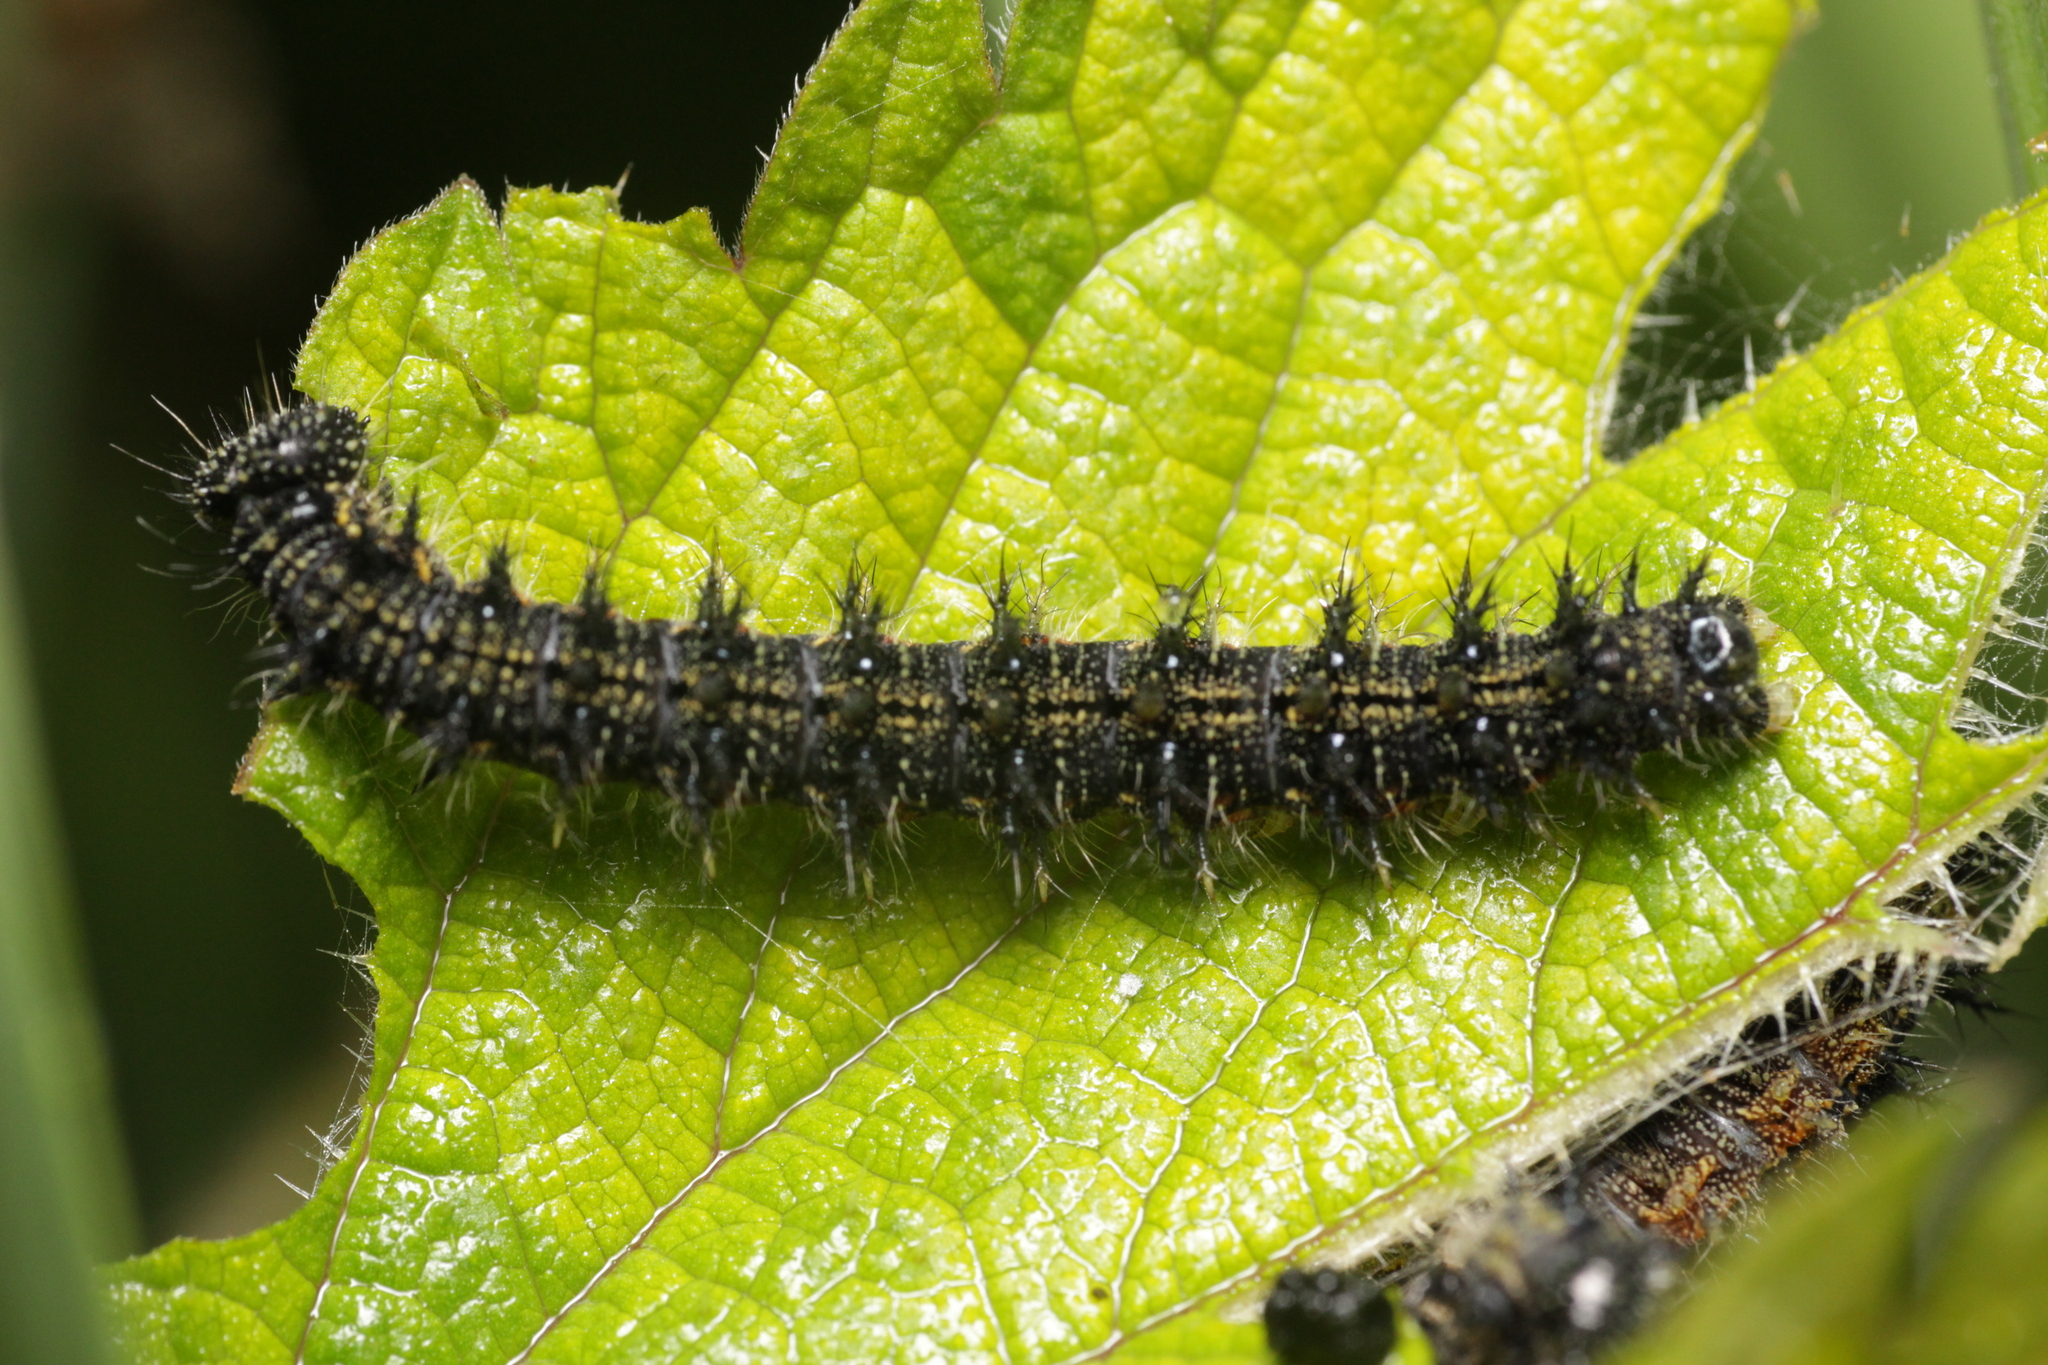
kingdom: Animalia
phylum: Arthropoda
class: Insecta
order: Lepidoptera
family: Nymphalidae
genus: Aglais
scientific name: Aglais urticae
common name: Small tortoiseshell
